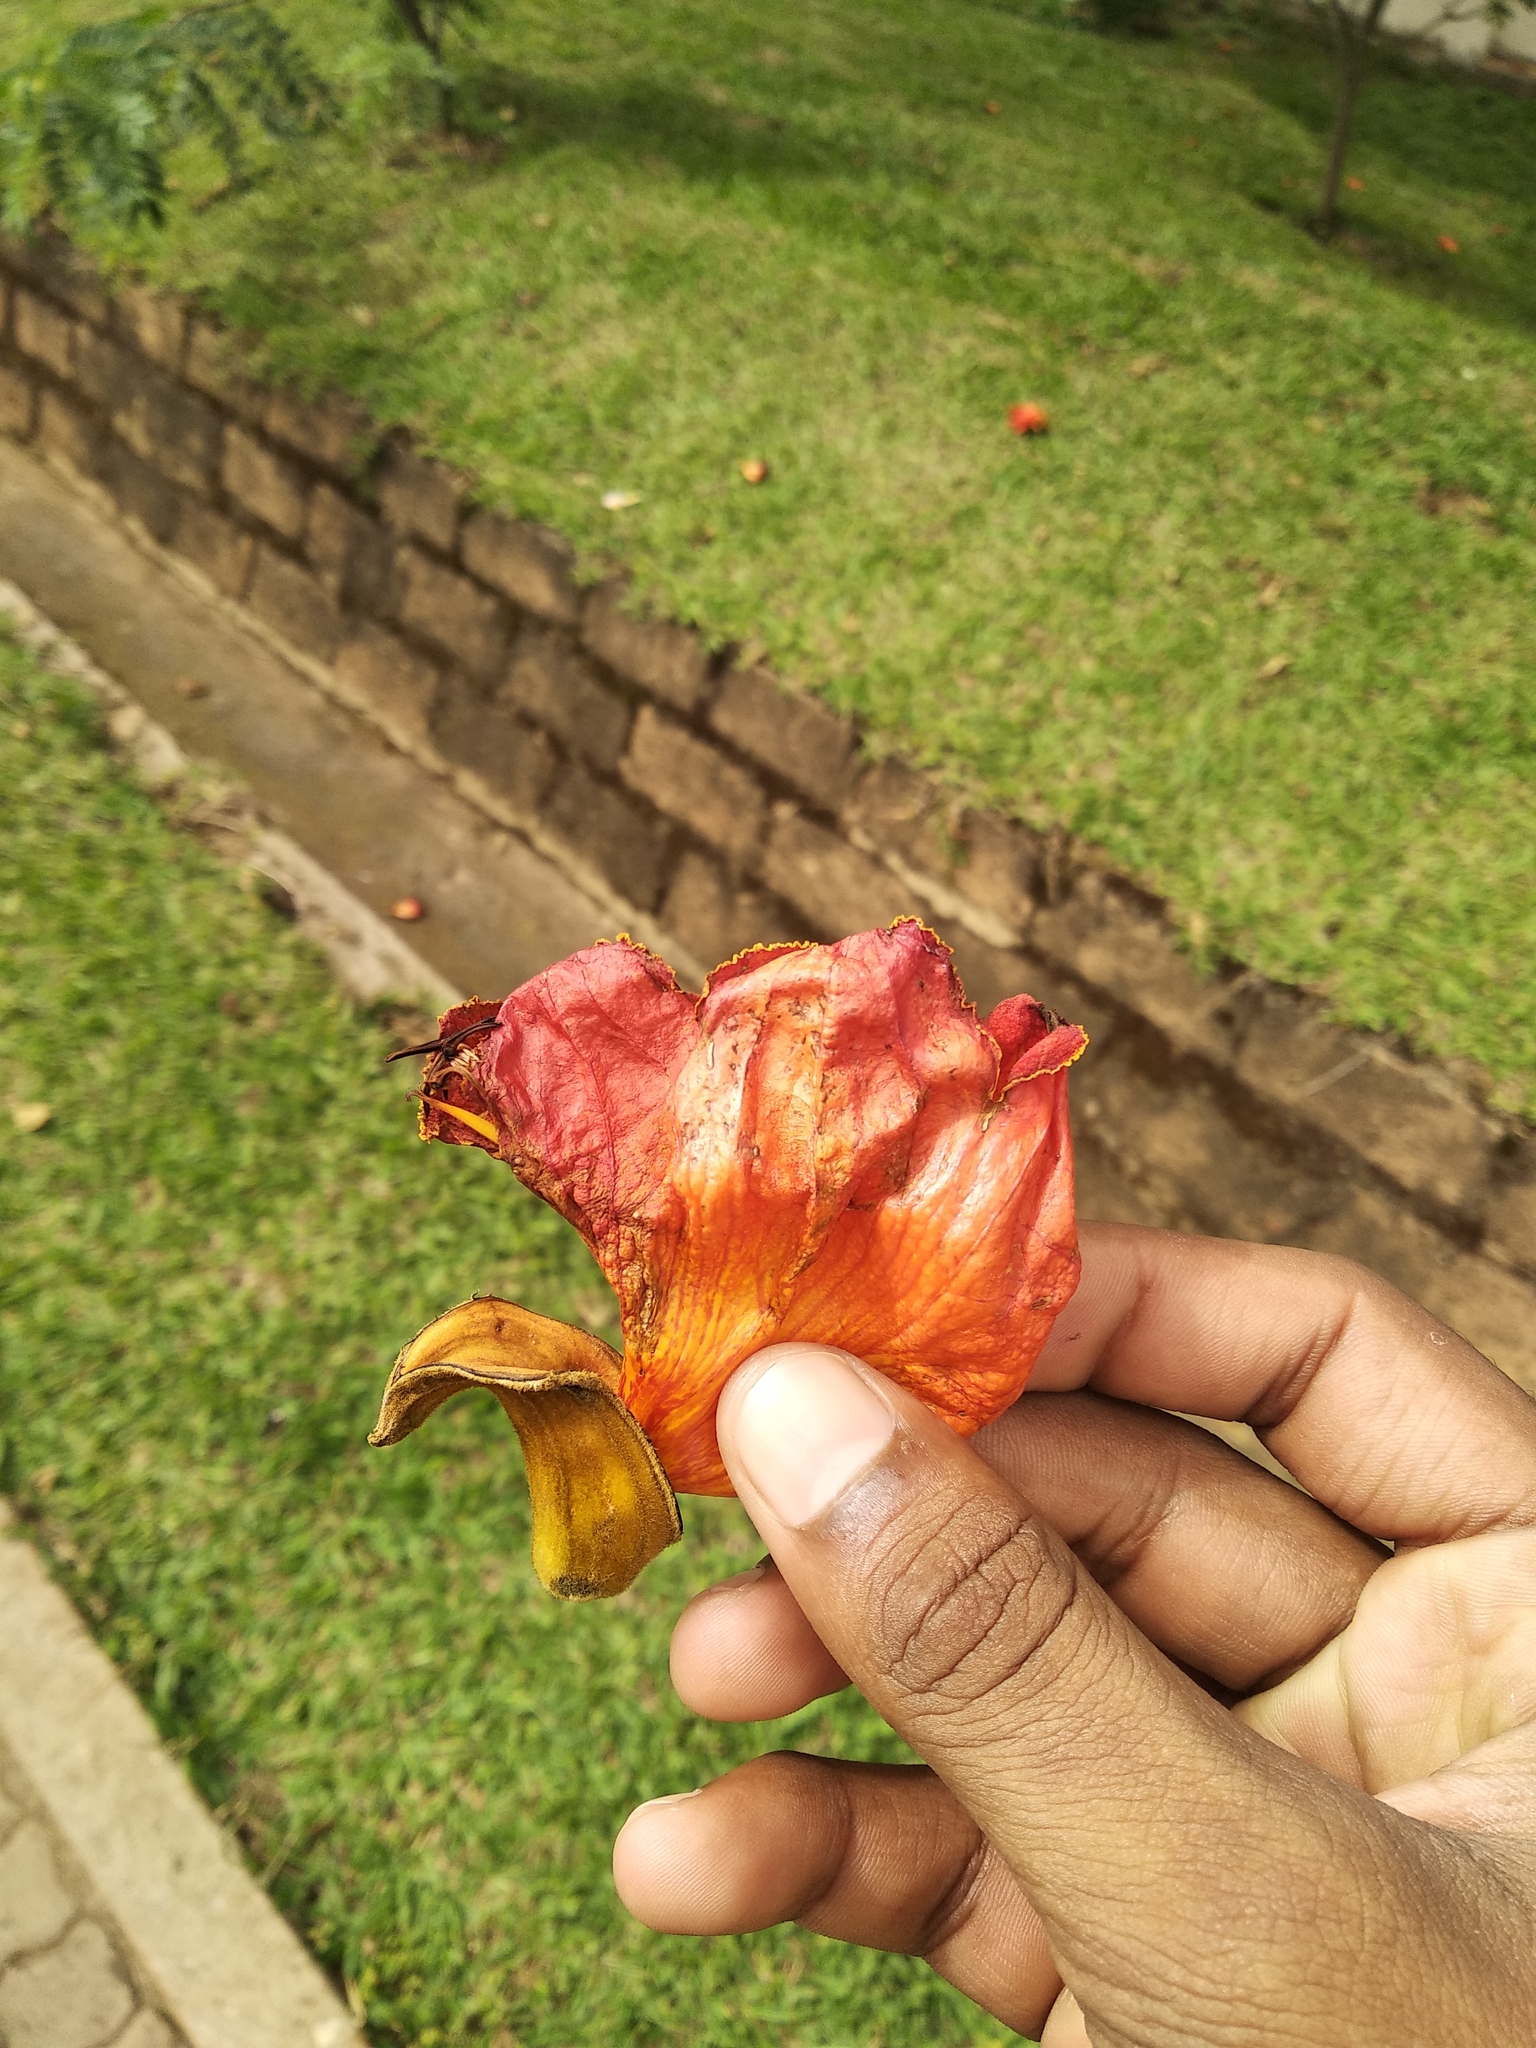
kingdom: Plantae
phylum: Tracheophyta
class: Magnoliopsida
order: Lamiales
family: Bignoniaceae
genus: Spathodea
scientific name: Spathodea campanulata
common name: African tuliptree
